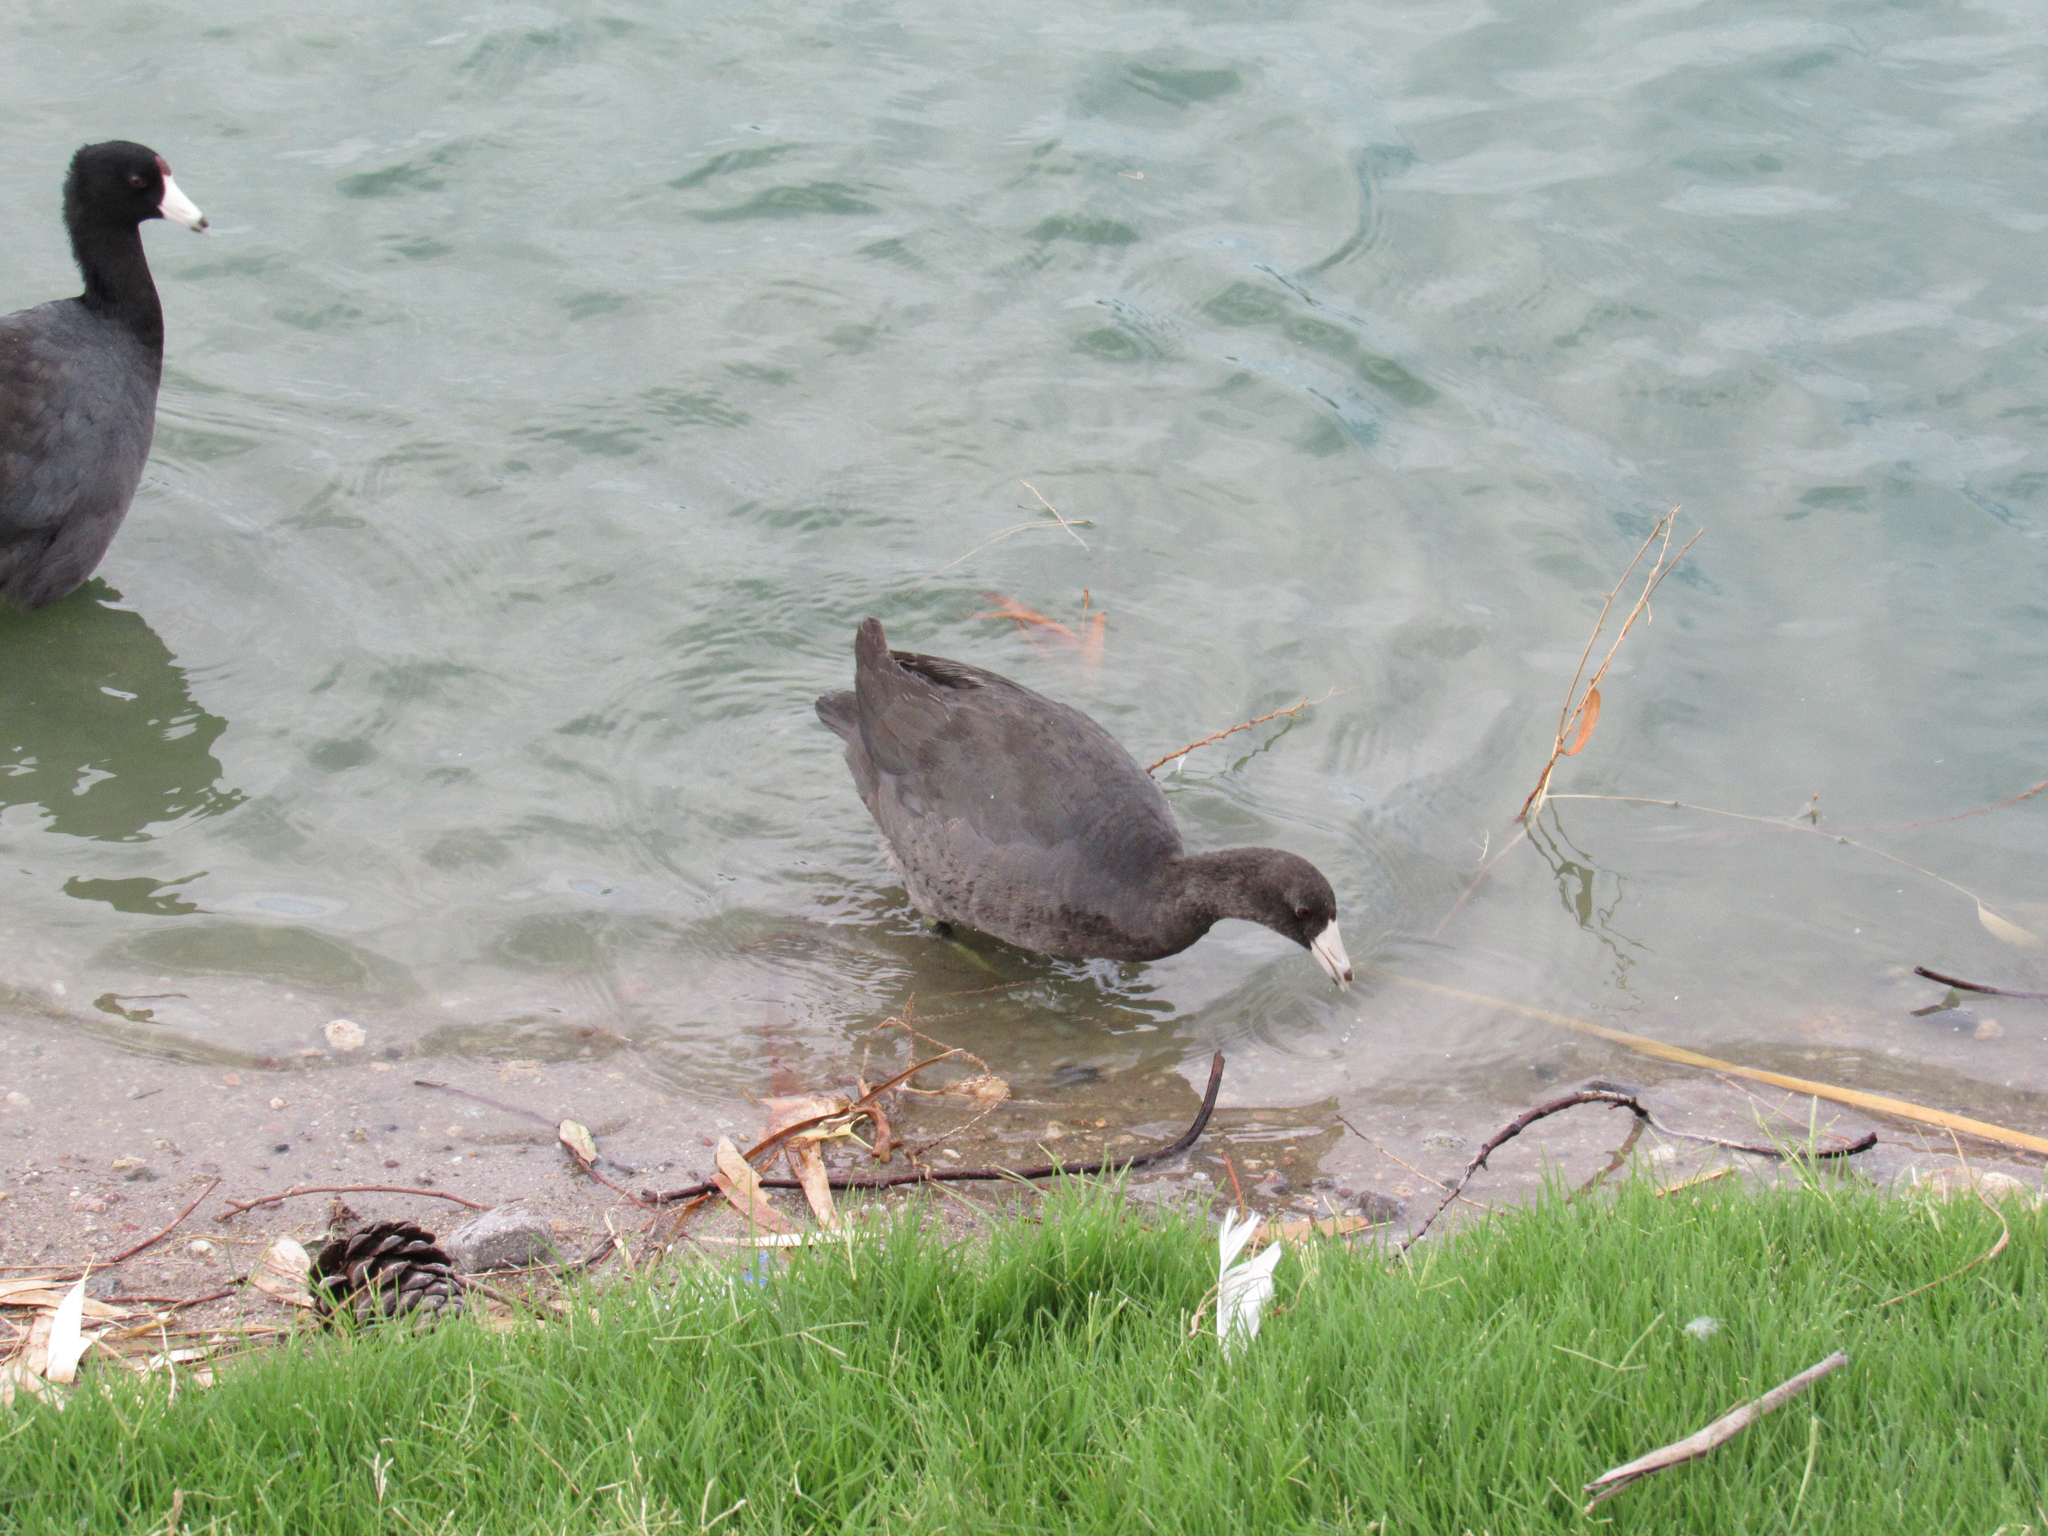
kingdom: Animalia
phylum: Chordata
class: Aves
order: Gruiformes
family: Rallidae
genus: Fulica
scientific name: Fulica americana
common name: American coot
